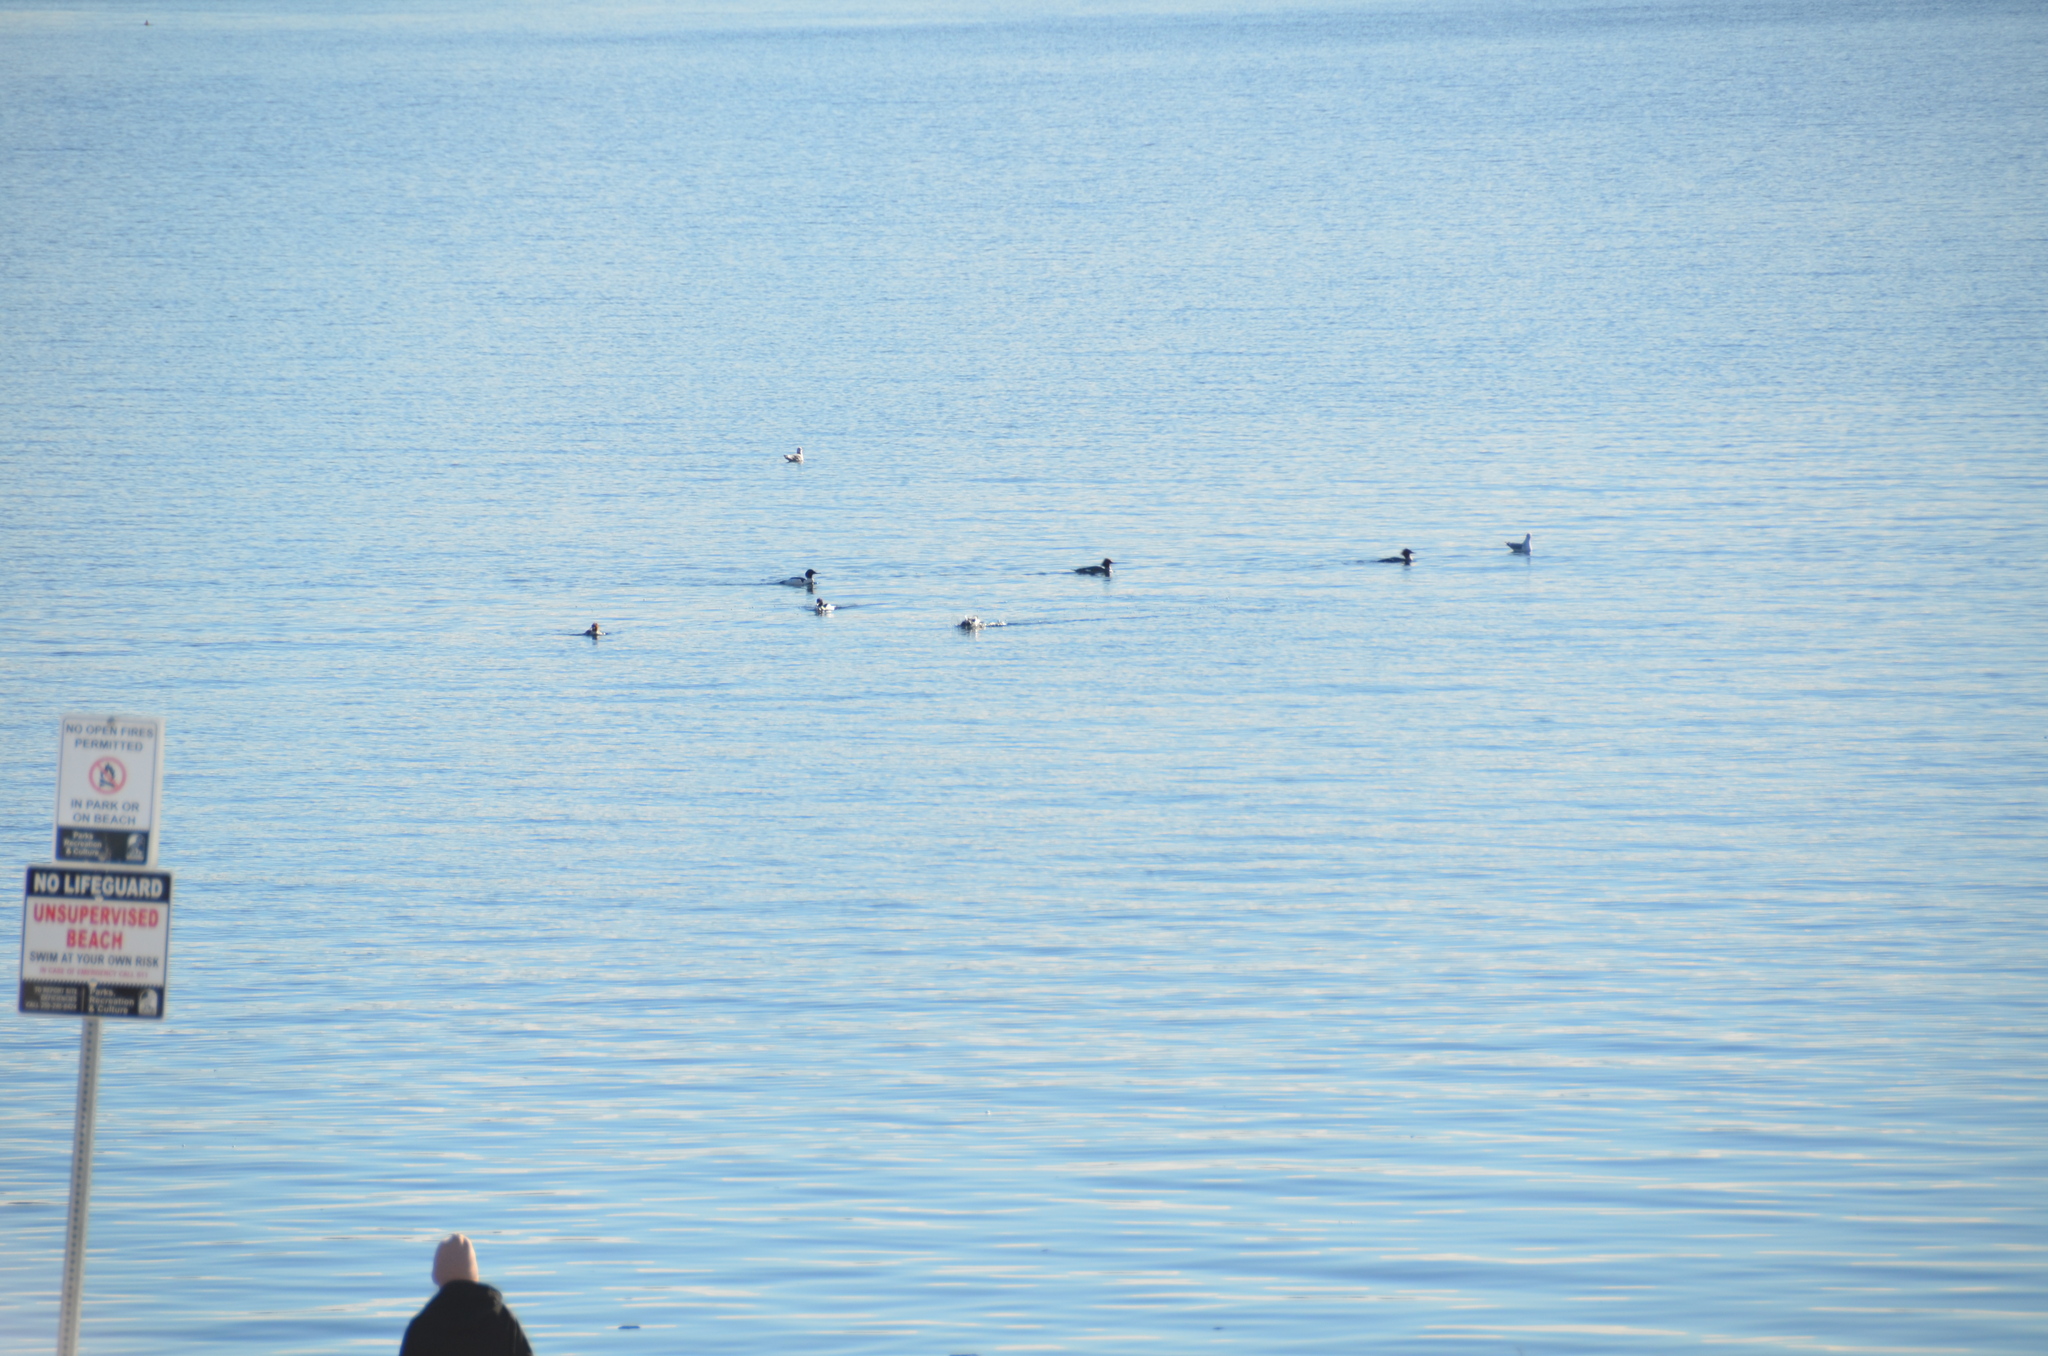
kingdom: Animalia
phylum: Chordata
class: Aves
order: Anseriformes
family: Anatidae
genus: Mergus
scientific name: Mergus merganser
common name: Common merganser
